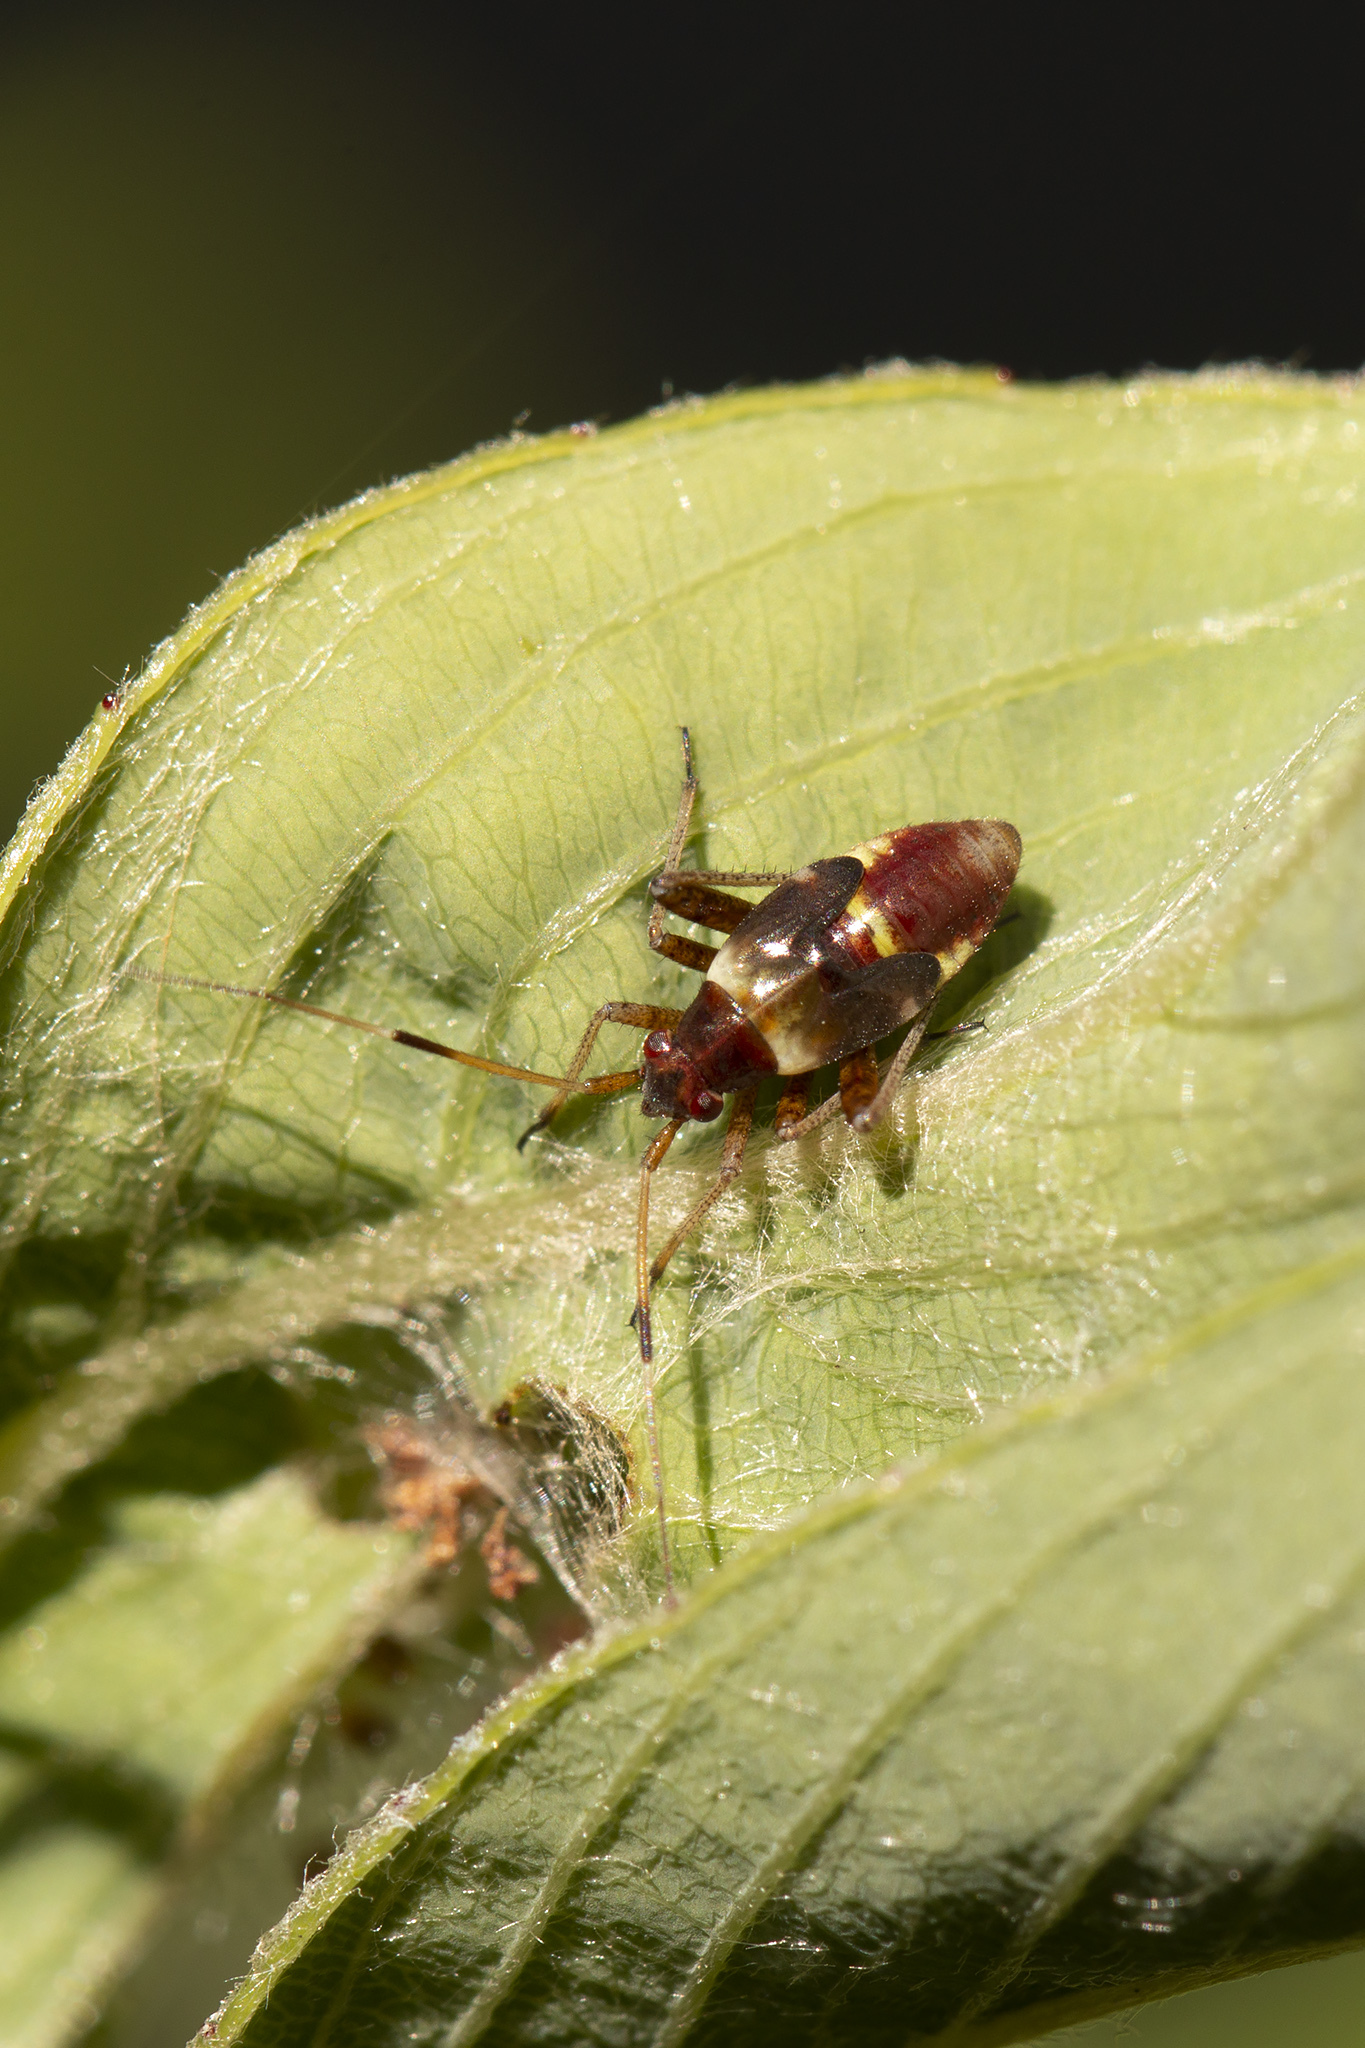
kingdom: Animalia
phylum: Arthropoda
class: Insecta
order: Hemiptera
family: Miridae
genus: Closterotomus
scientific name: Closterotomus fulvomaculatus
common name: Spotted plant bug
